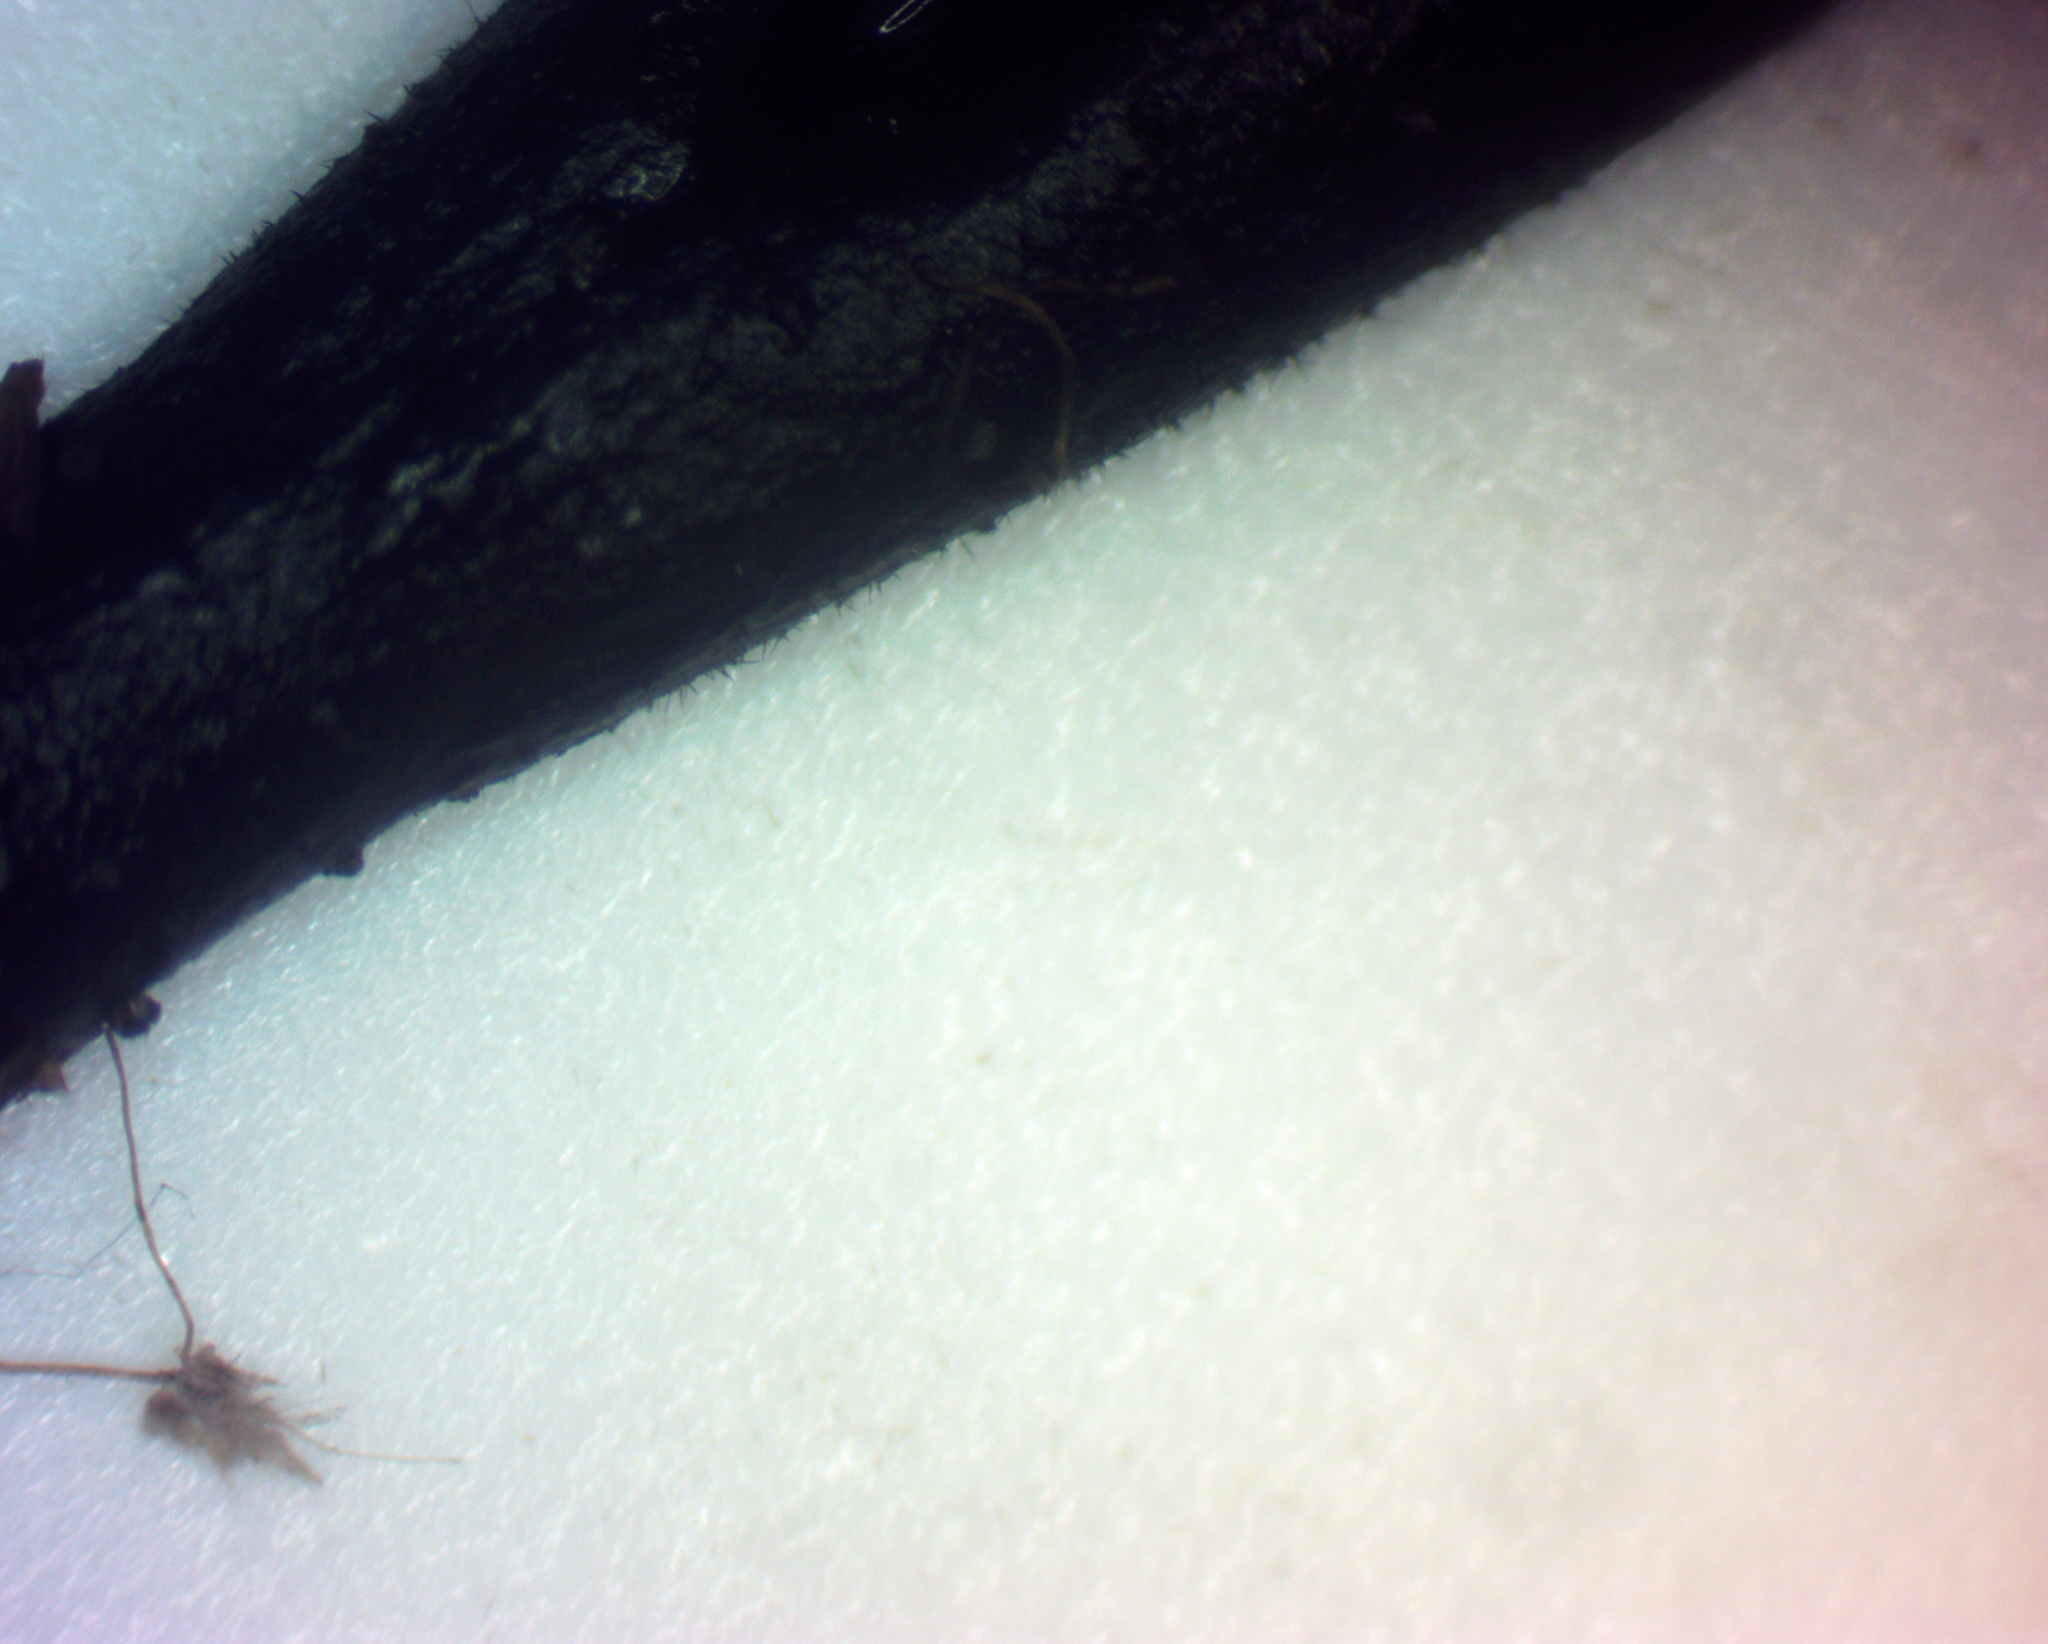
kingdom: Fungi
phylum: Ascomycota
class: Geoglossomycetes
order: Geoglossales
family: Geoglossaceae
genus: Geoglossum
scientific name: Geoglossum difforme
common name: Slimy earthtongue
